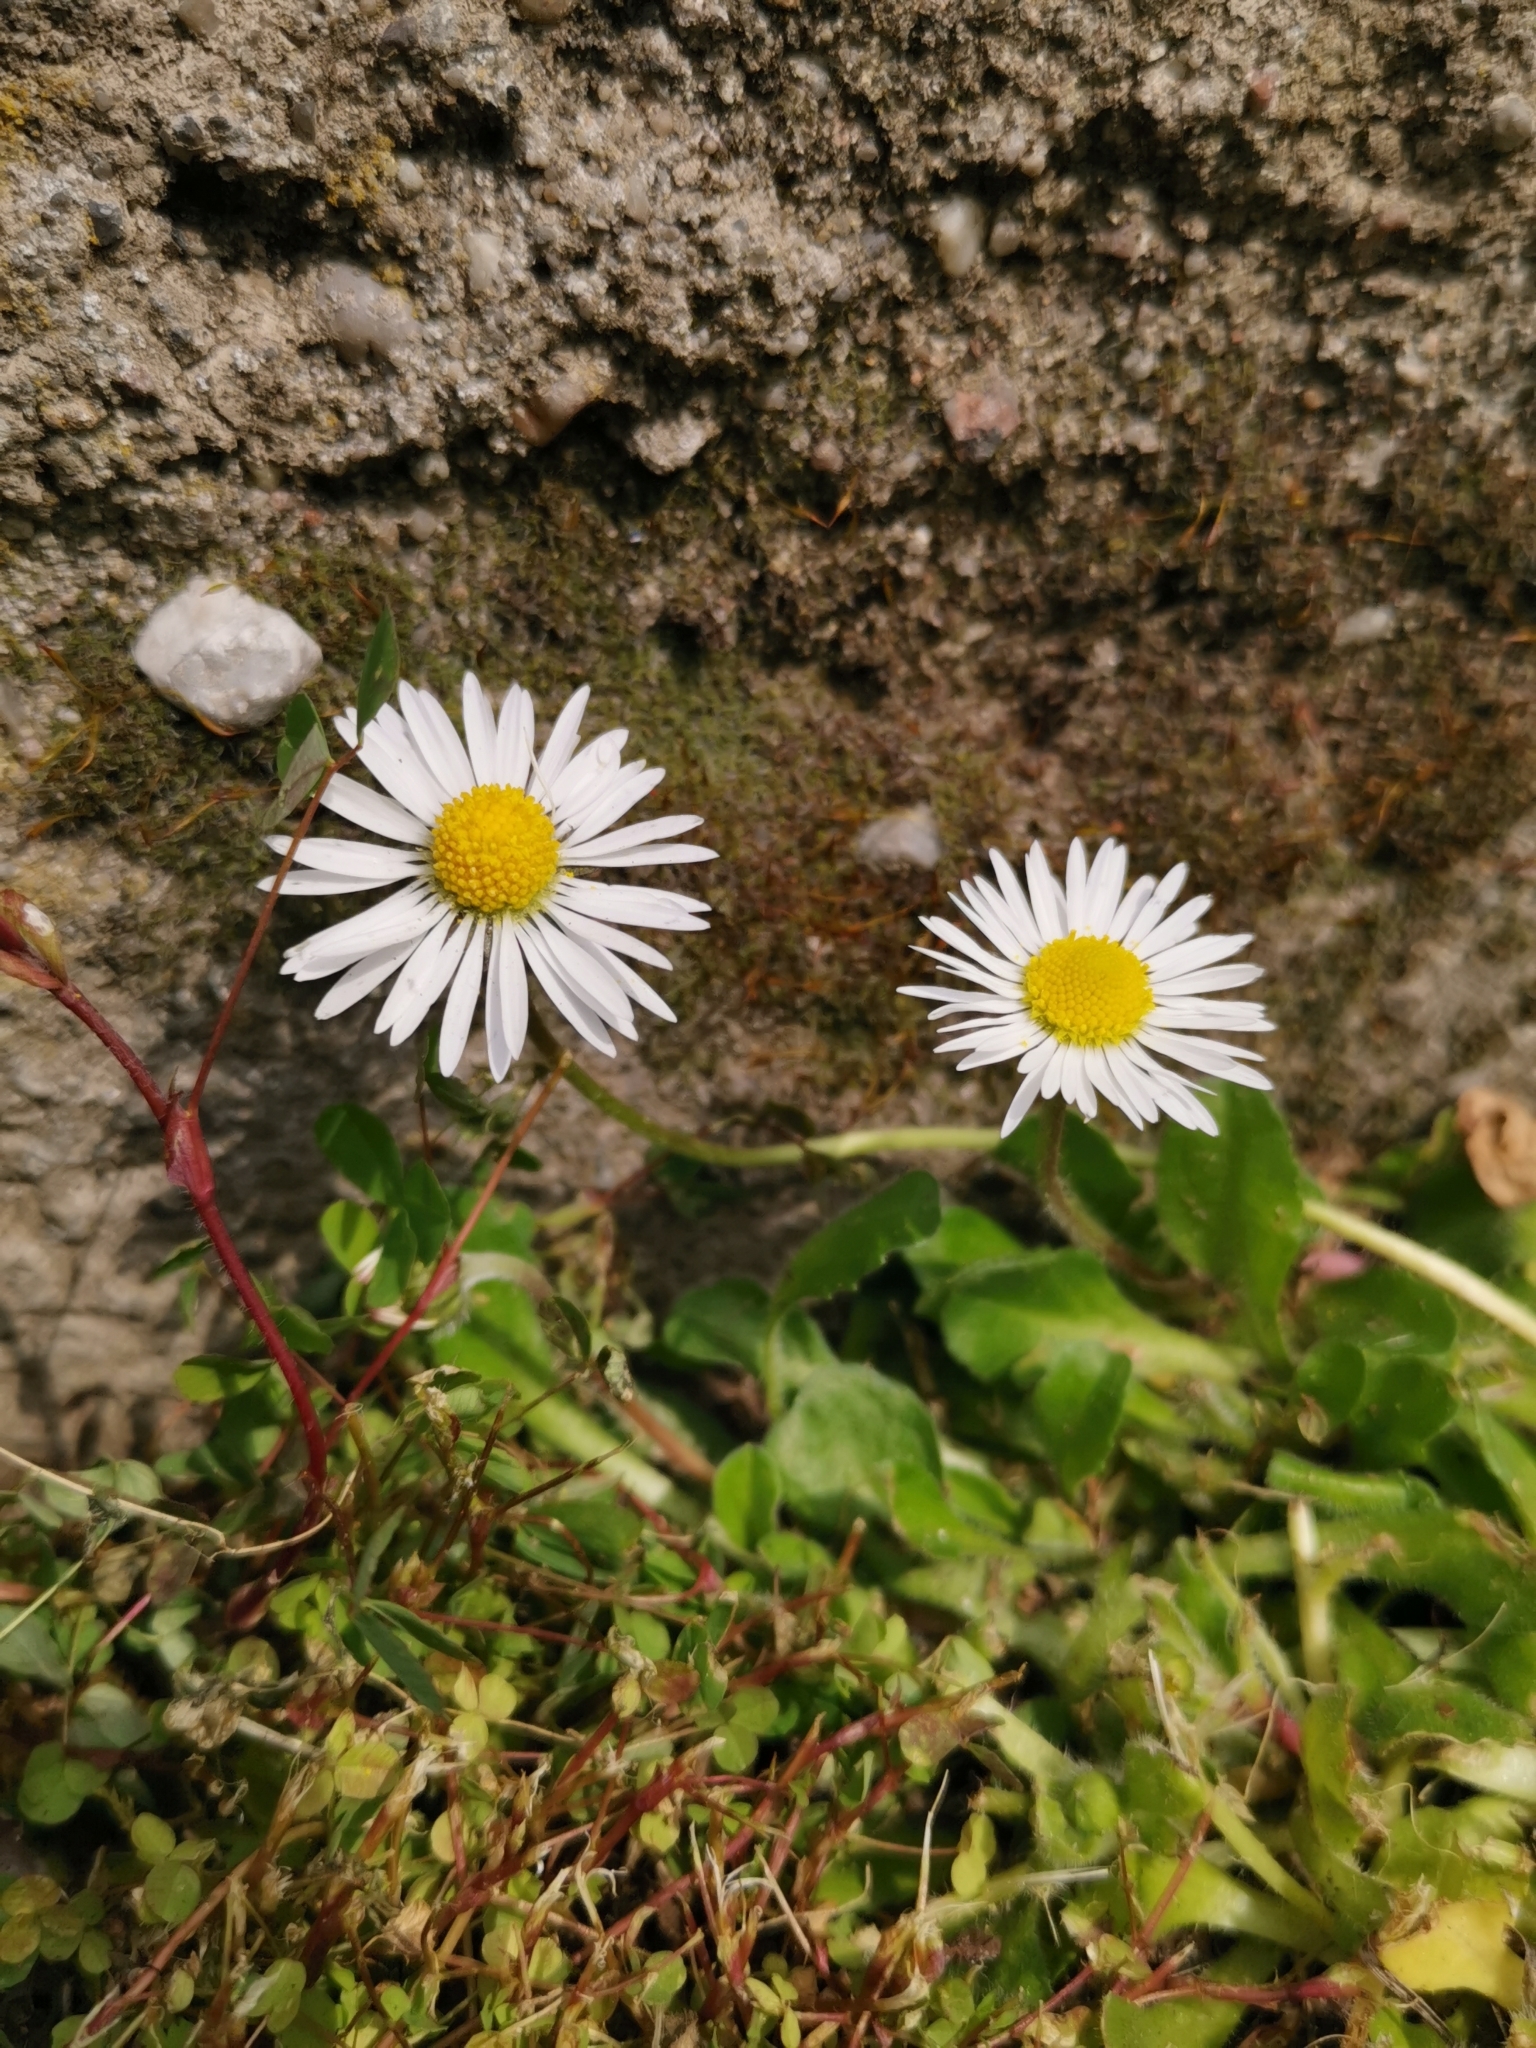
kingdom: Plantae
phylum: Tracheophyta
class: Magnoliopsida
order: Asterales
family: Asteraceae
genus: Bellis
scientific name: Bellis perennis
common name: Lawndaisy
